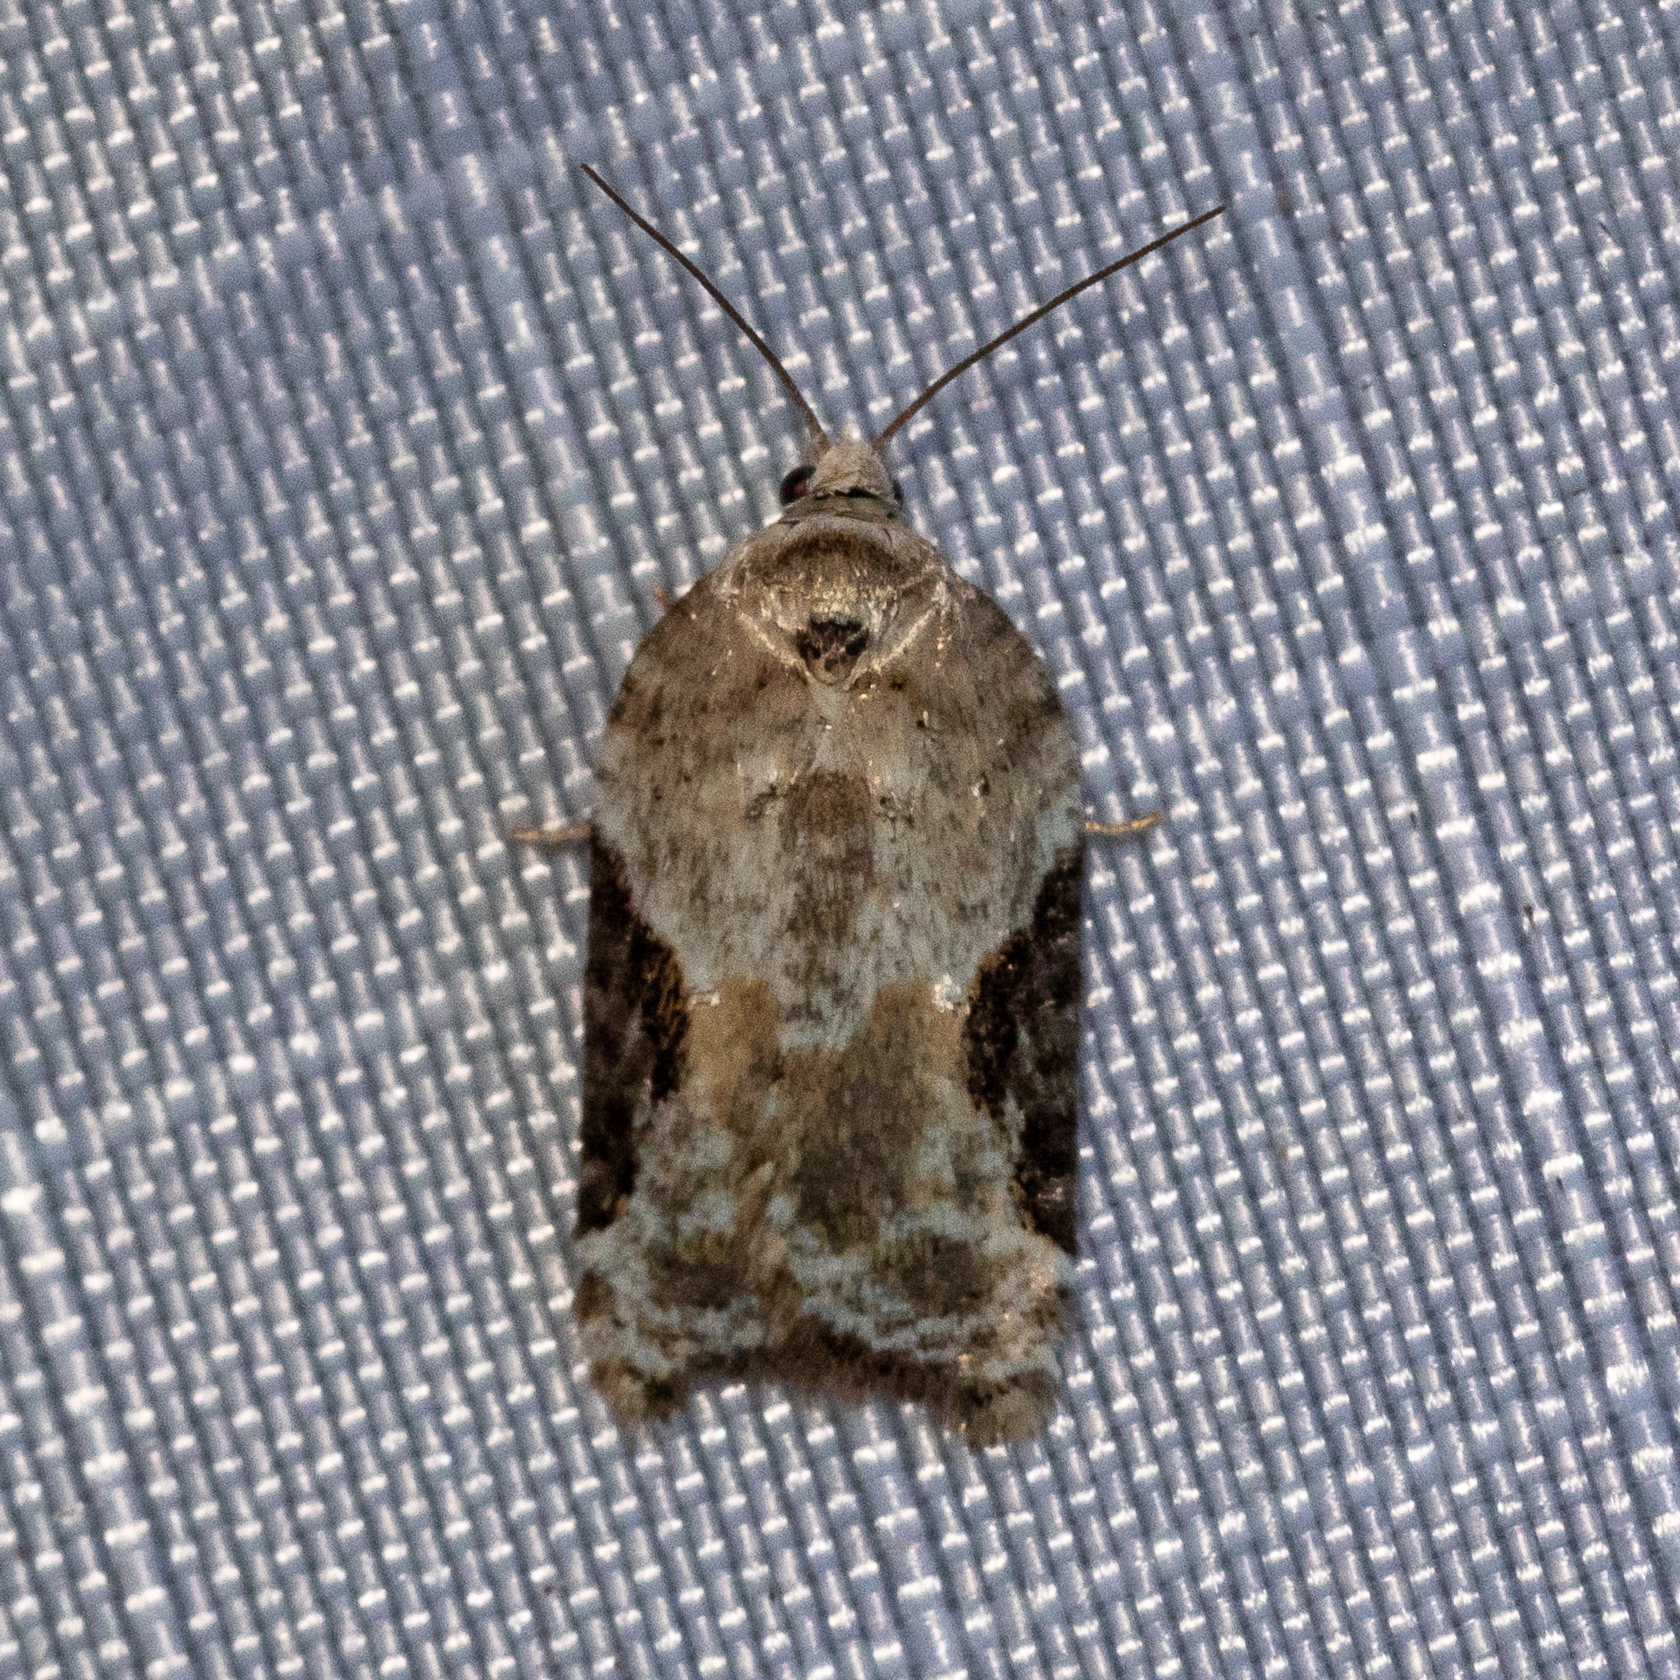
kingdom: Animalia
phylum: Arthropoda
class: Insecta
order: Lepidoptera
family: Tortricidae
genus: Argyrotaenia
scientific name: Argyrotaenia mariana
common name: Gray-banded leafroller moth
